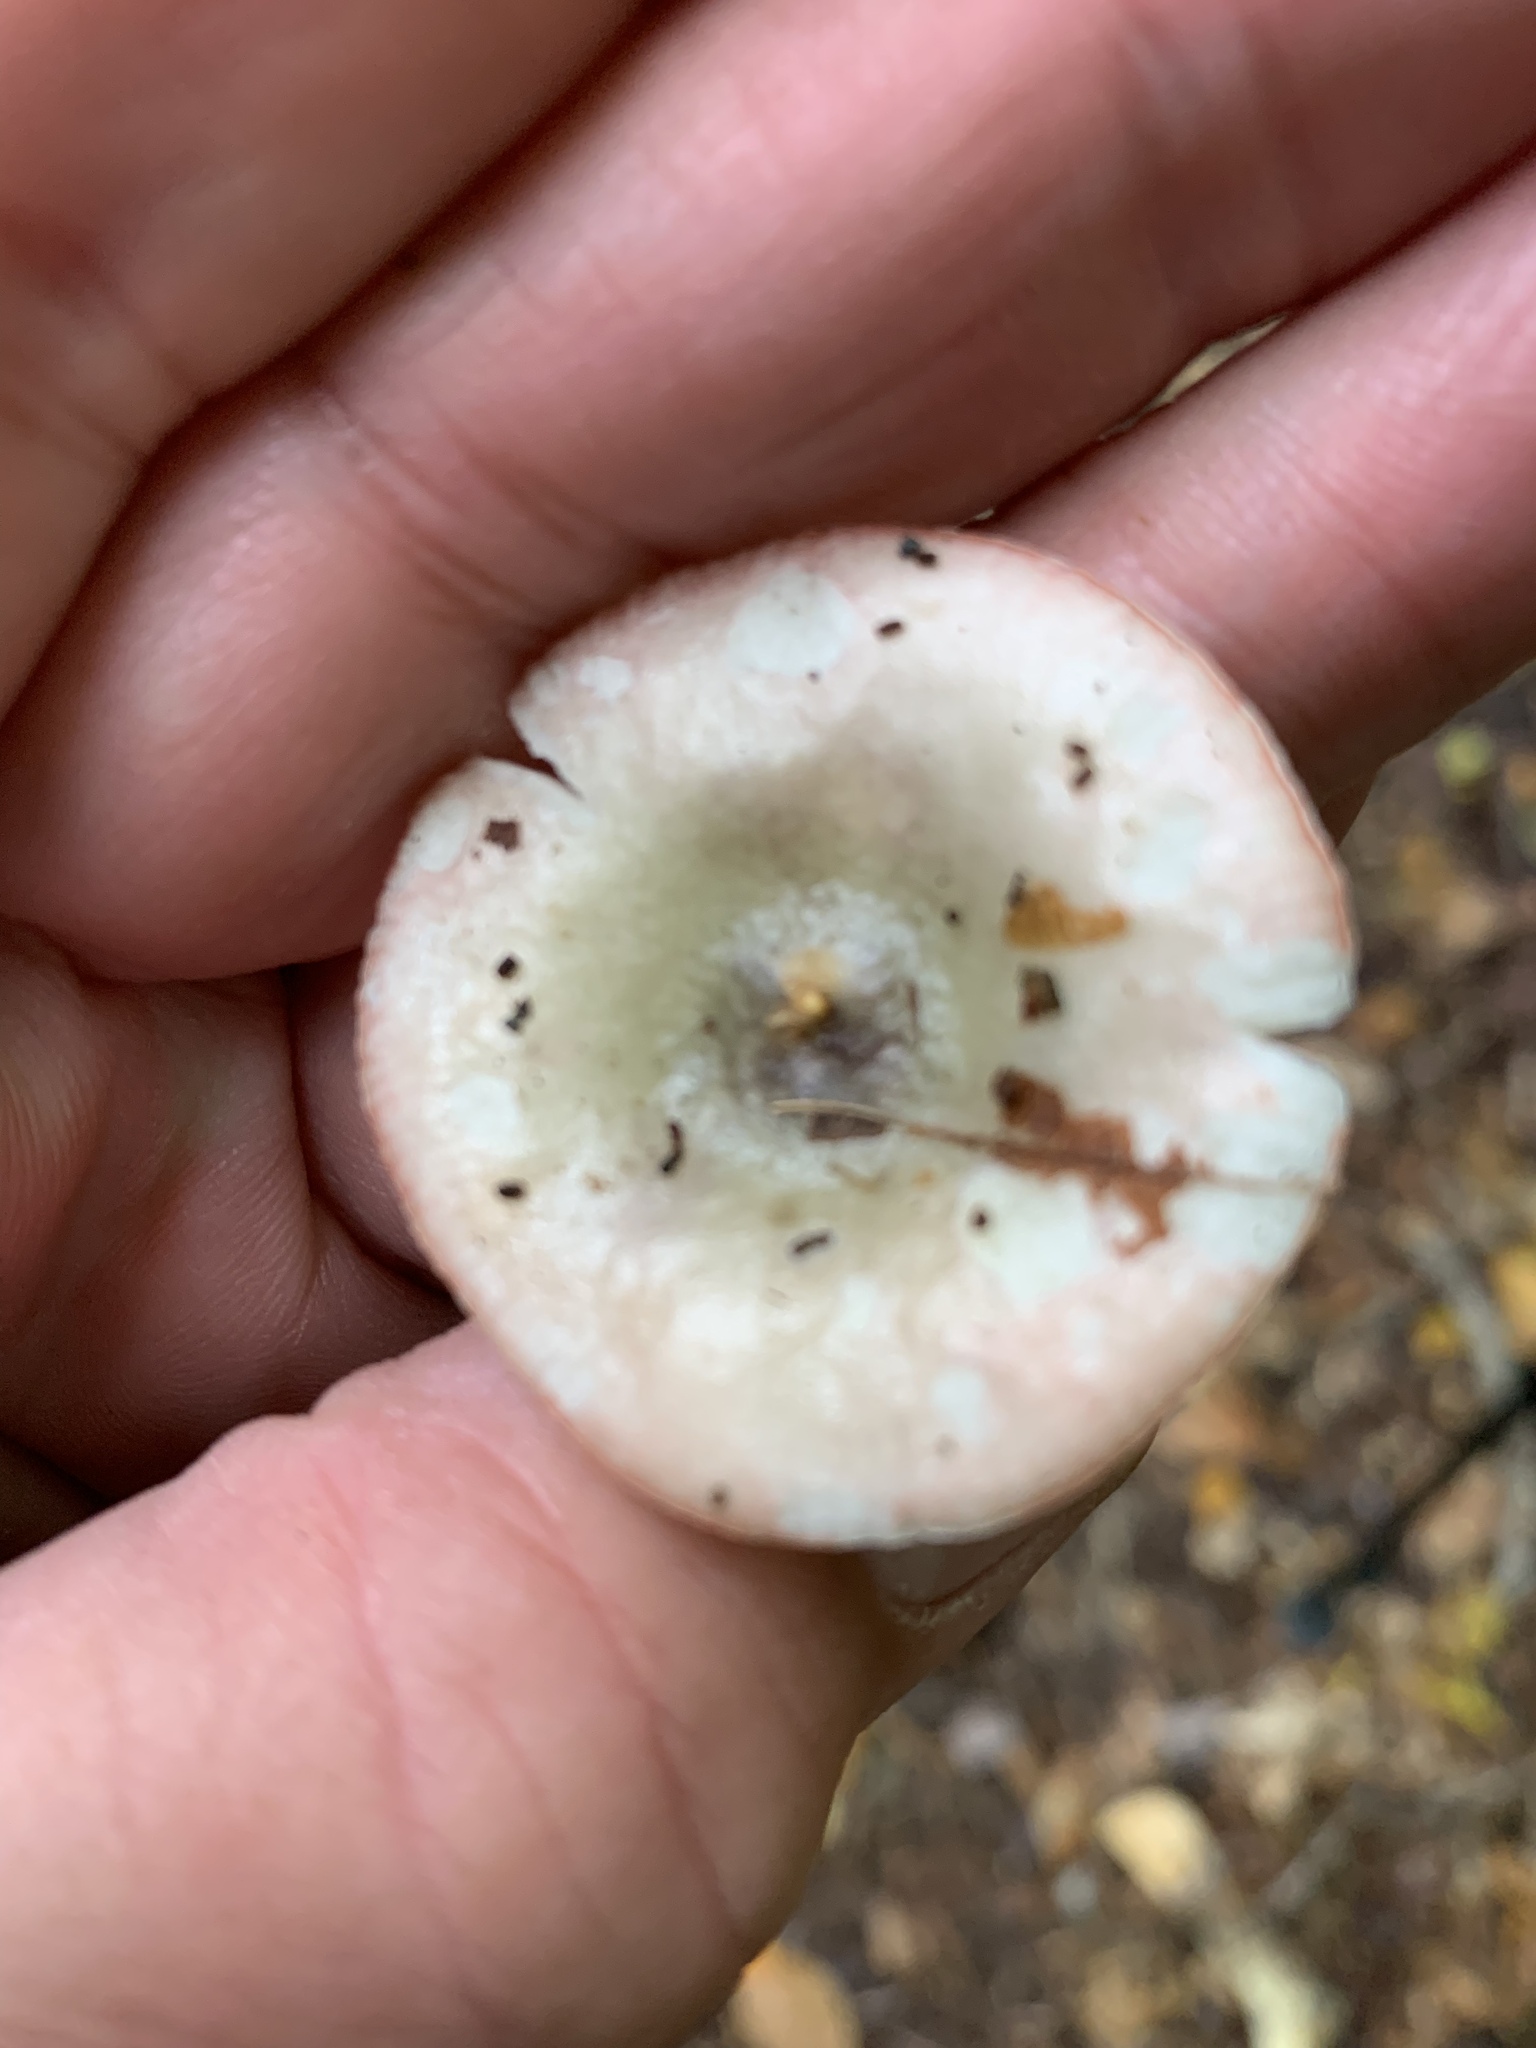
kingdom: Fungi
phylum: Basidiomycota
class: Agaricomycetes
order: Russulales
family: Russulaceae
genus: Russula
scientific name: Russula fragilis
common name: Fragile brittlegill
